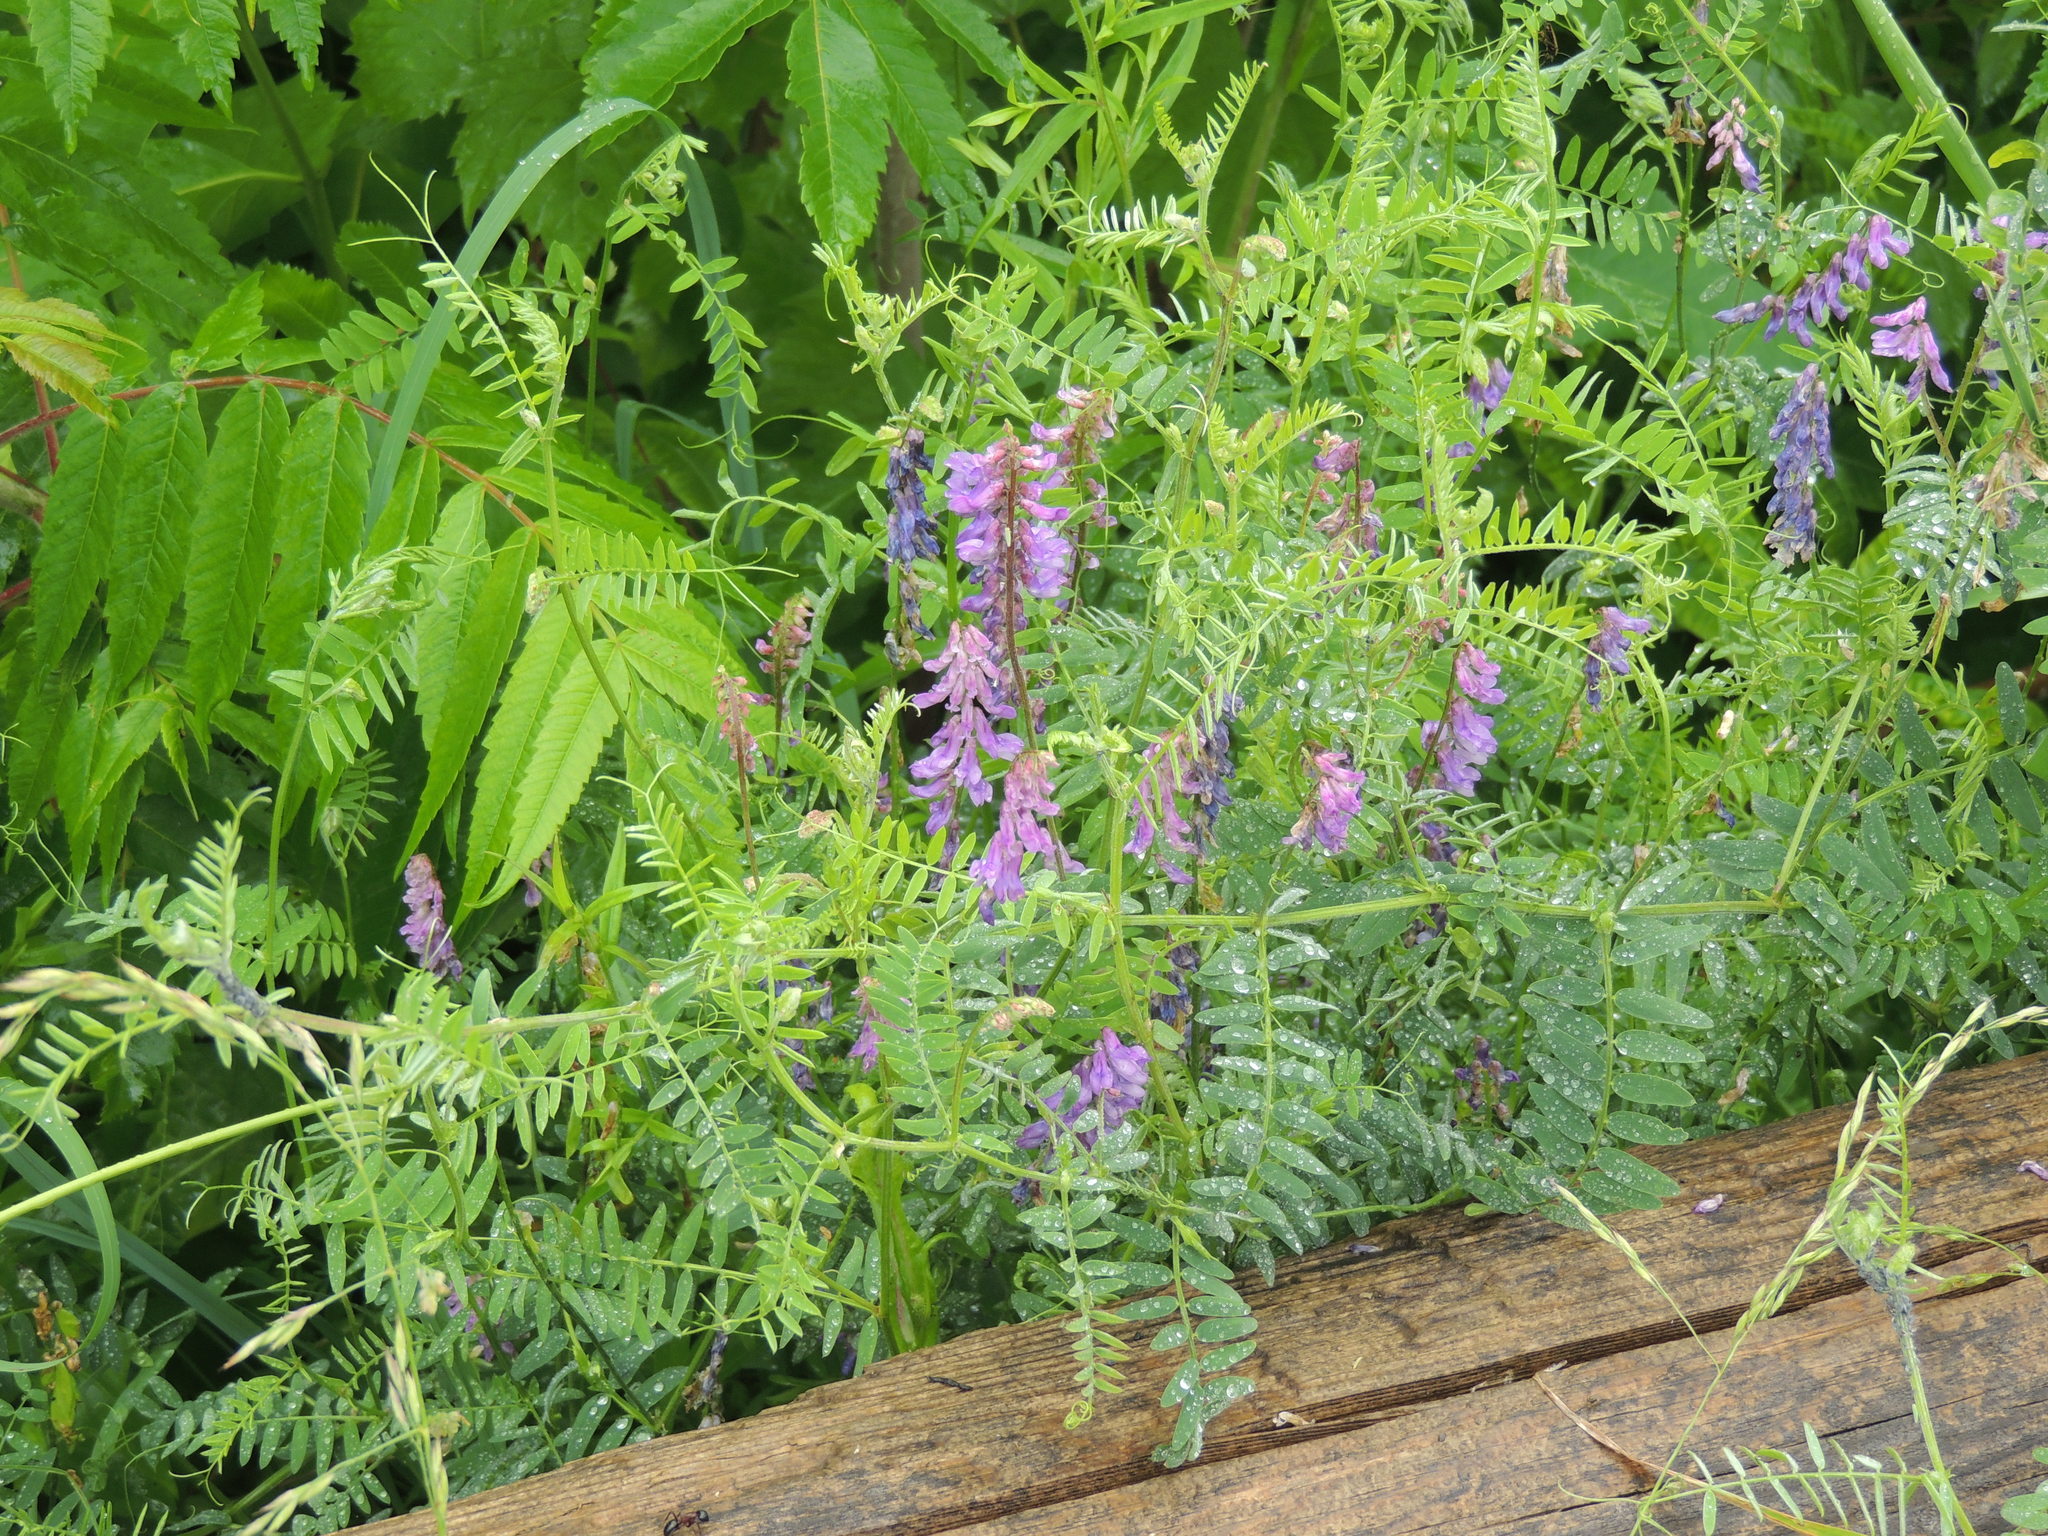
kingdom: Plantae
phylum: Tracheophyta
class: Magnoliopsida
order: Fabales
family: Fabaceae
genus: Vicia
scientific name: Vicia cracca
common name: Bird vetch
